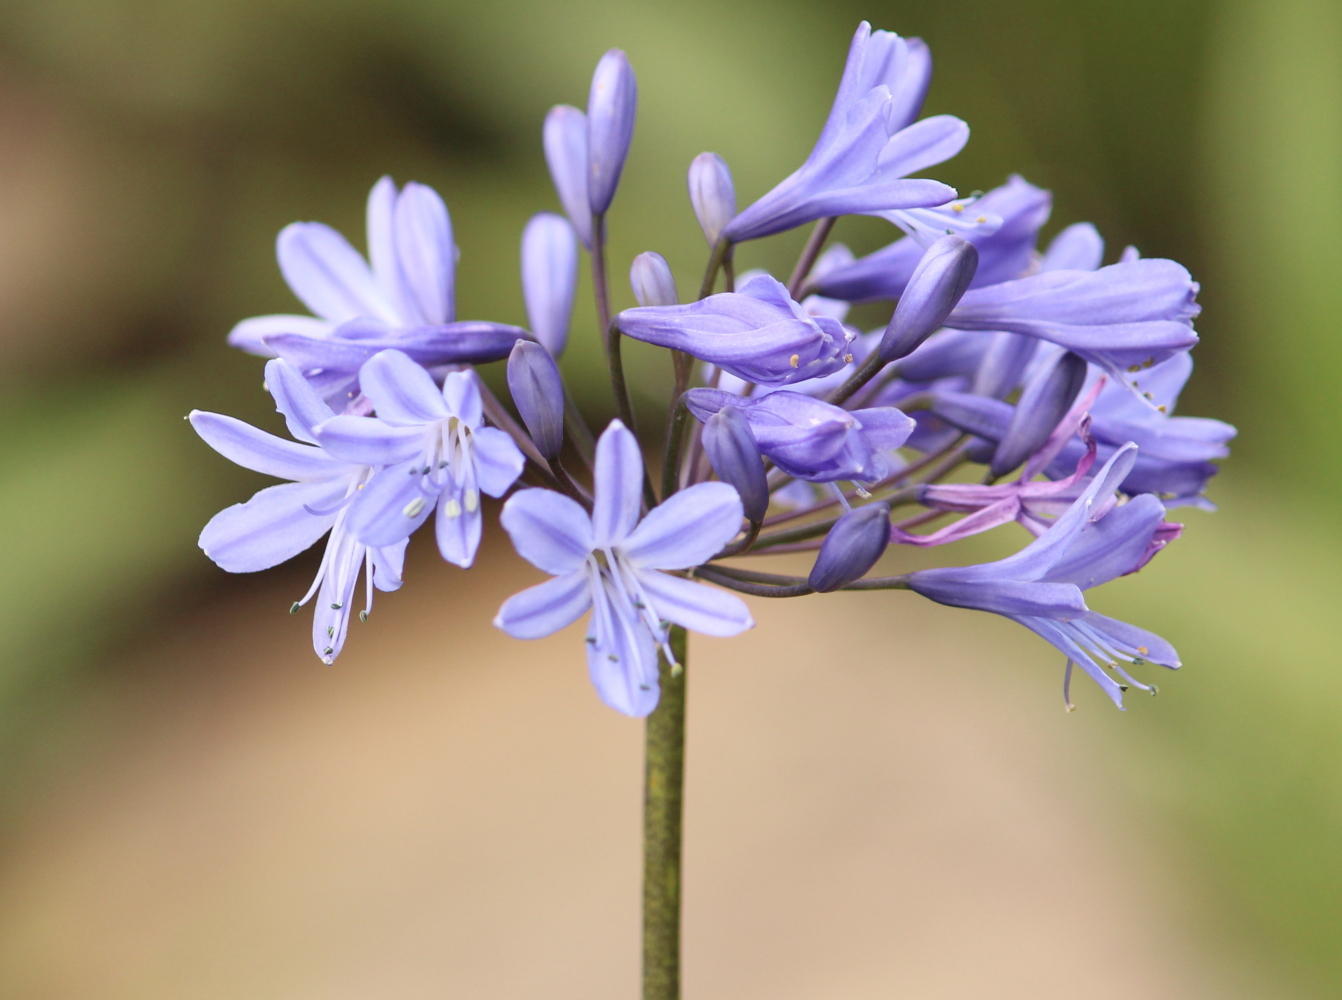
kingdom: Plantae
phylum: Tracheophyta
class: Liliopsida
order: Asparagales
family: Amaryllidaceae
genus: Agapanthus
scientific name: Agapanthus campanulatus
